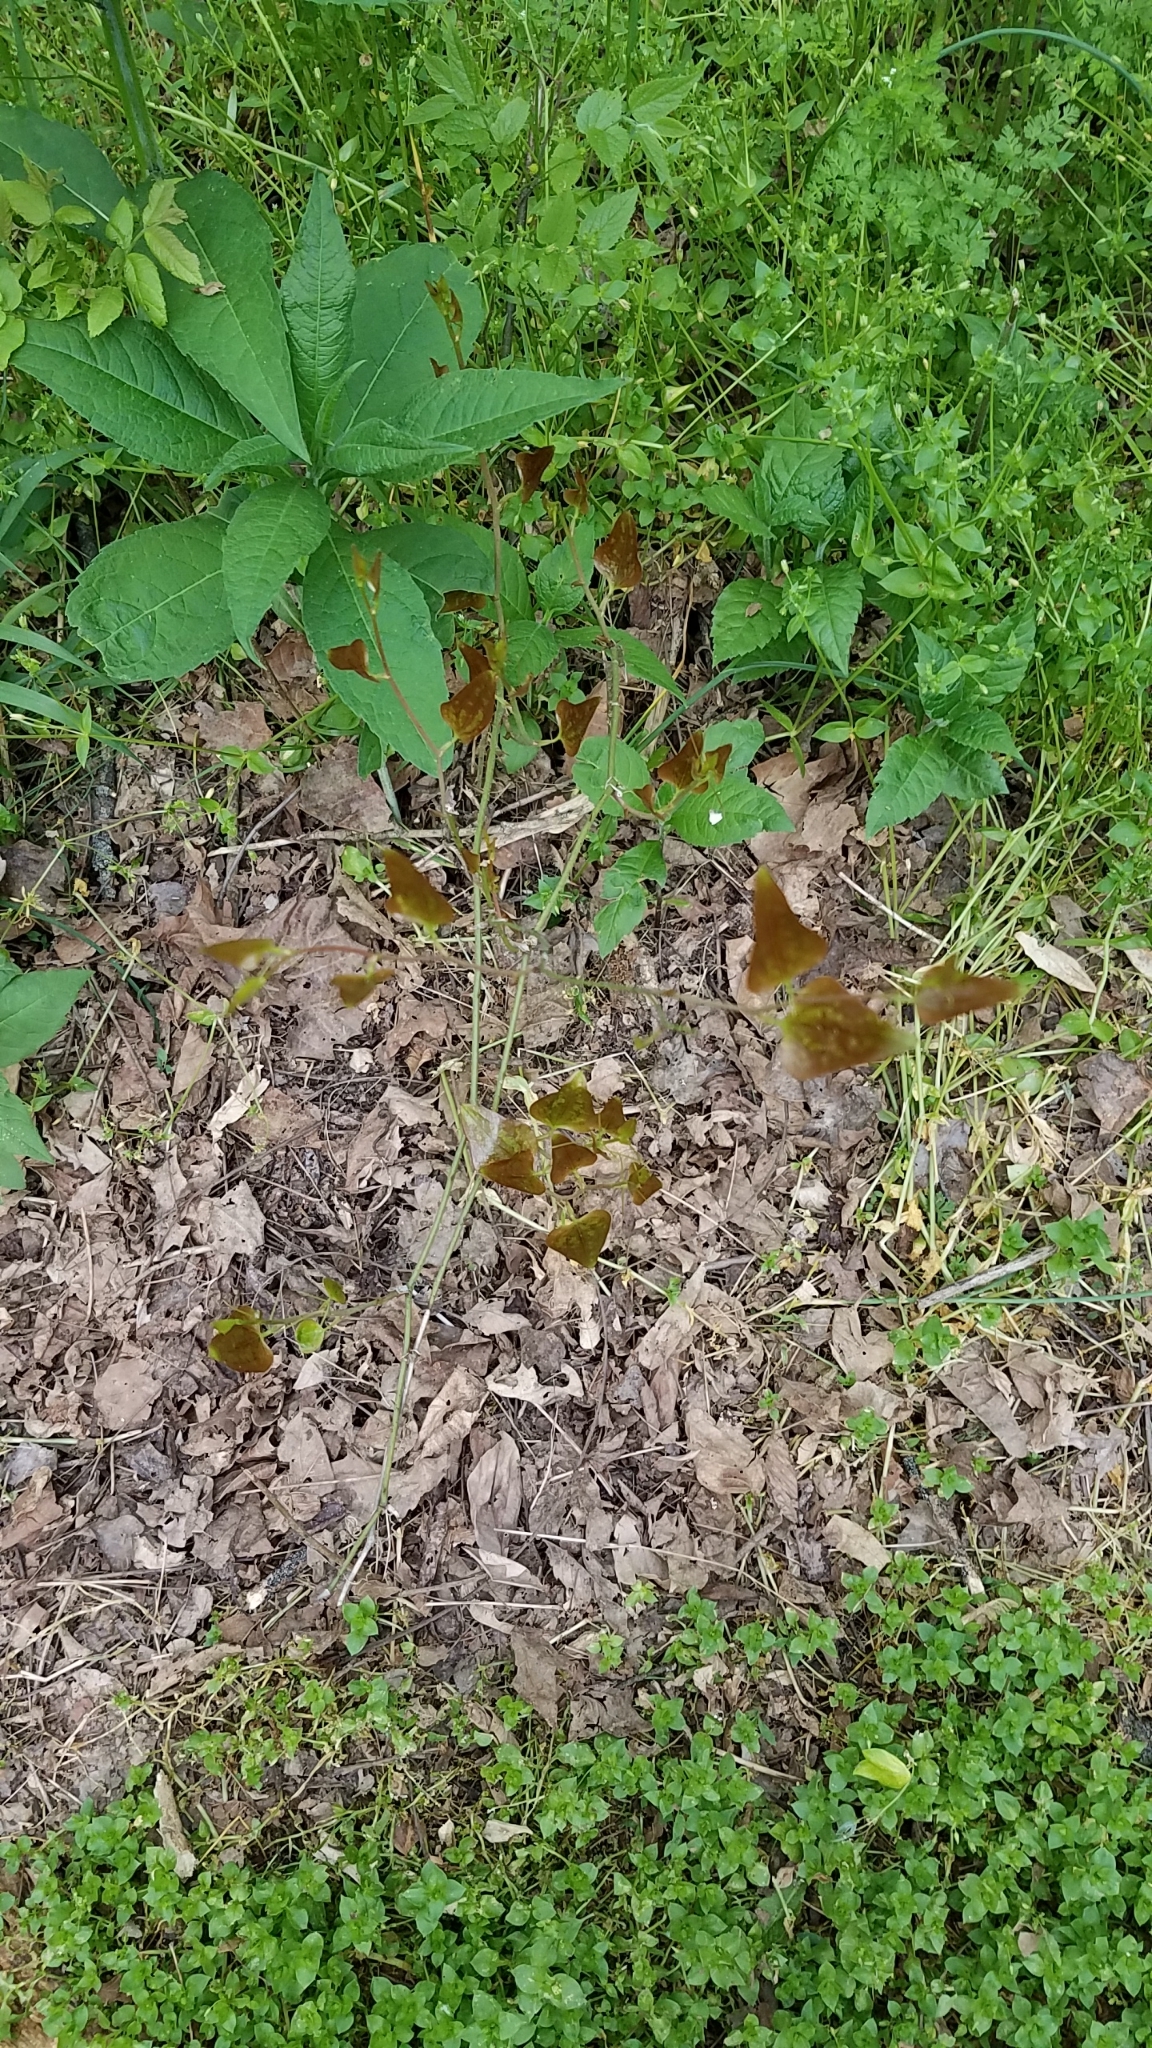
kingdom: Plantae
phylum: Tracheophyta
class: Liliopsida
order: Liliales
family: Smilacaceae
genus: Smilax
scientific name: Smilax bona-nox
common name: Catbrier
